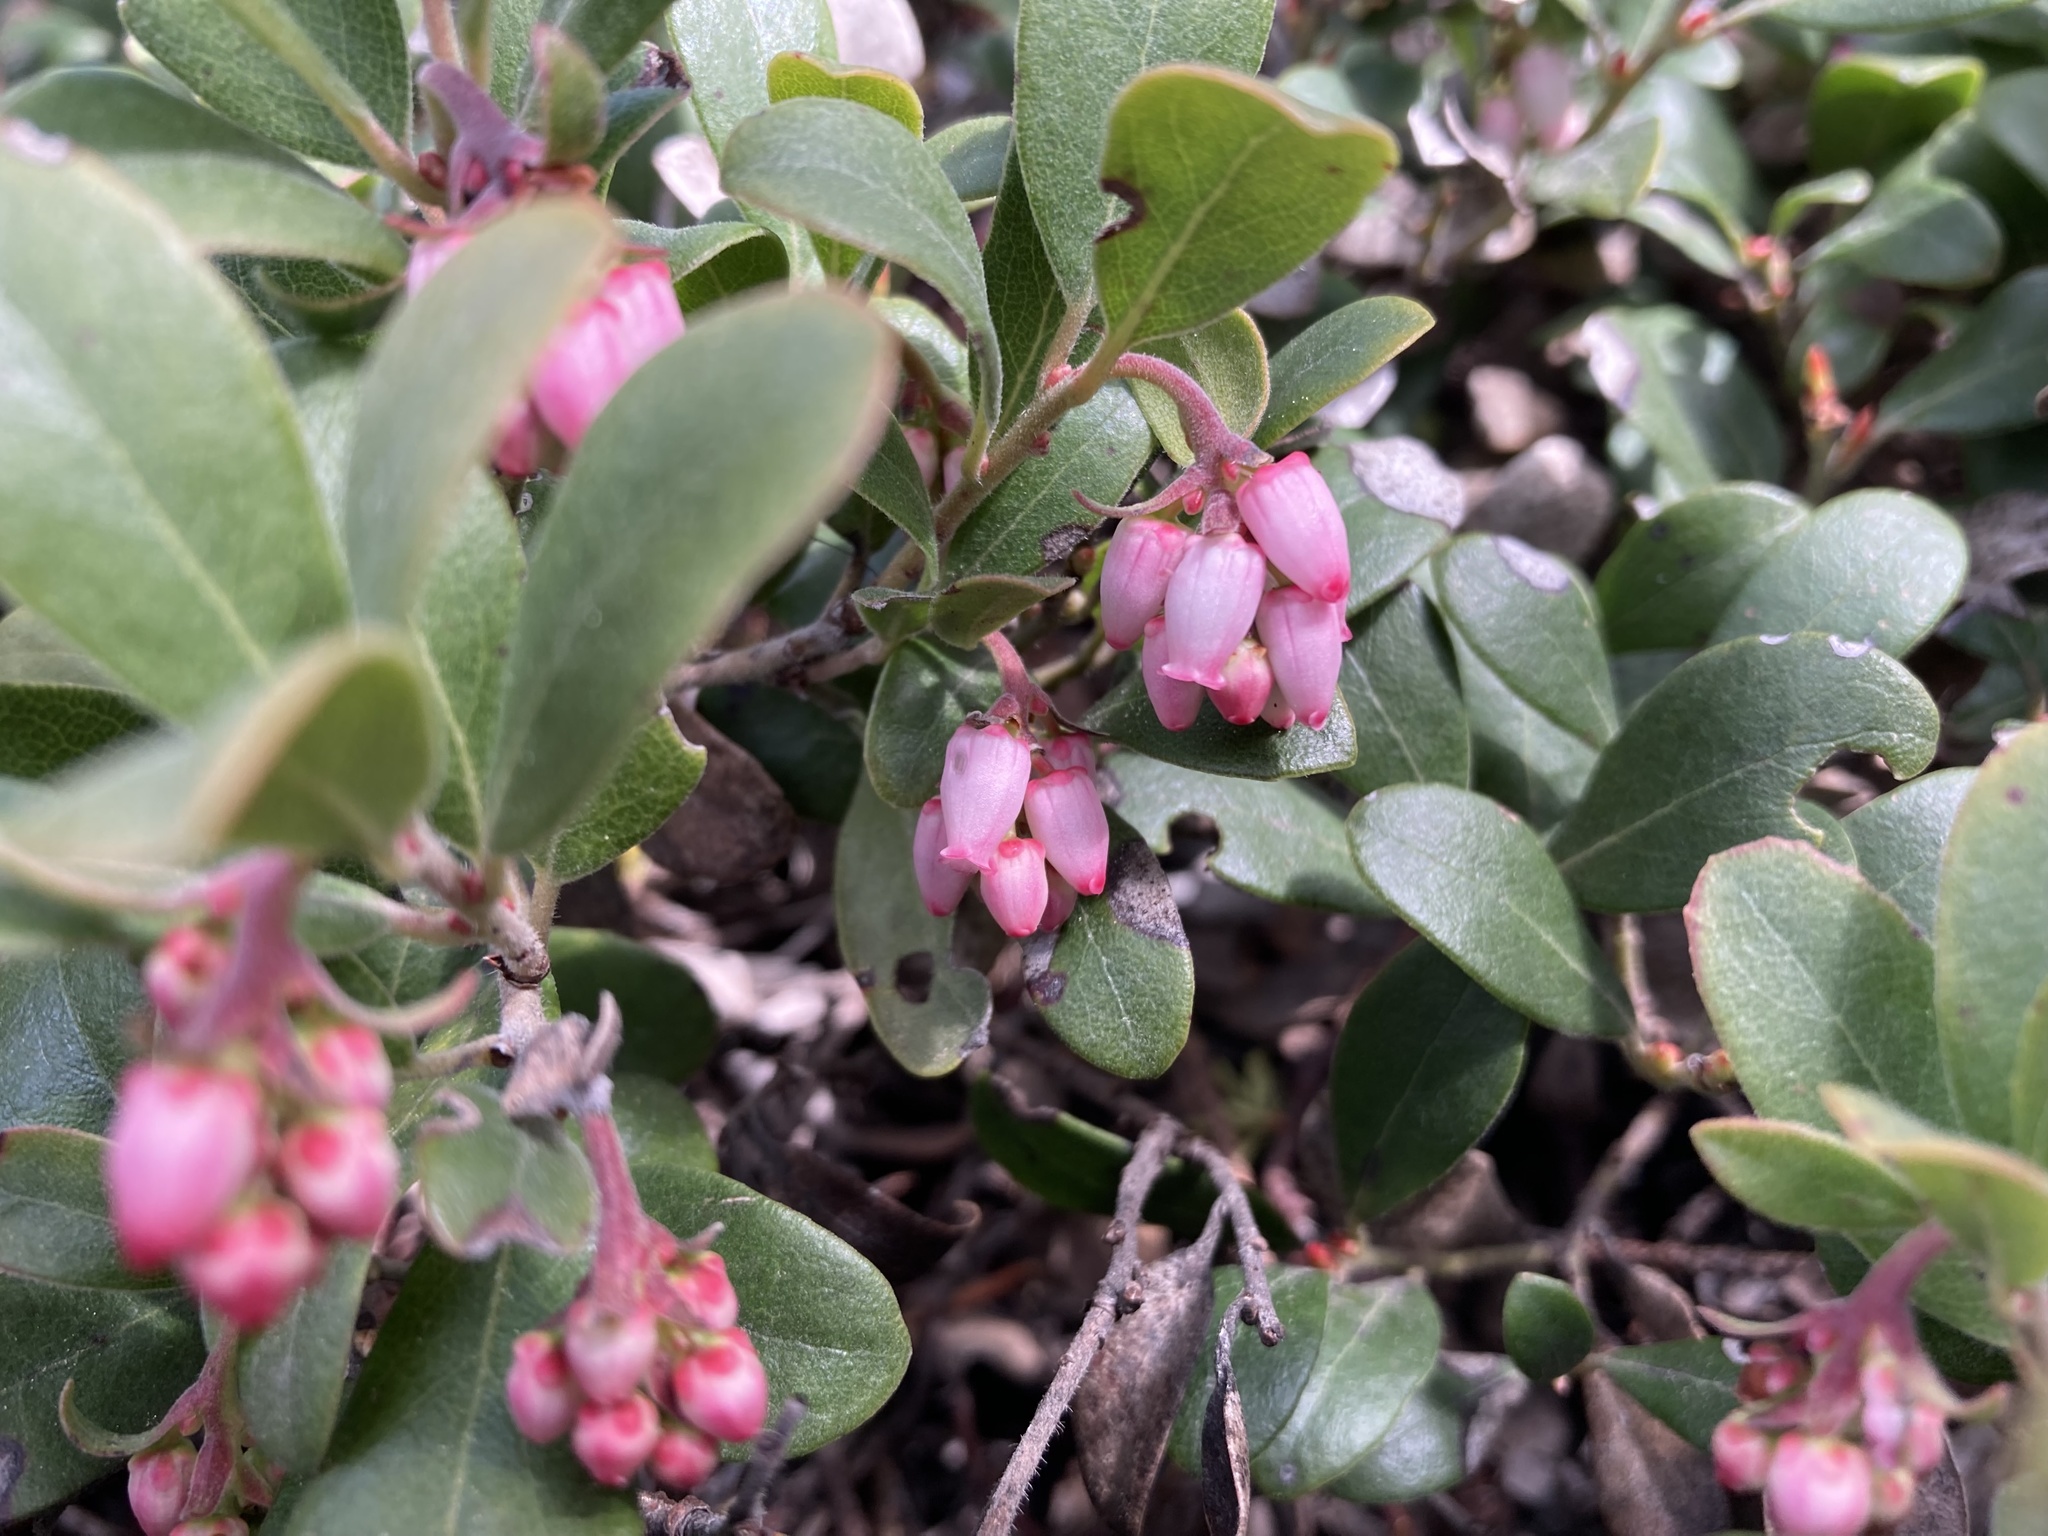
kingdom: Plantae
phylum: Tracheophyta
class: Magnoliopsida
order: Ericales
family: Ericaceae
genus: Arctostaphylos
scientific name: Arctostaphylos uva-ursi
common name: Bearberry
